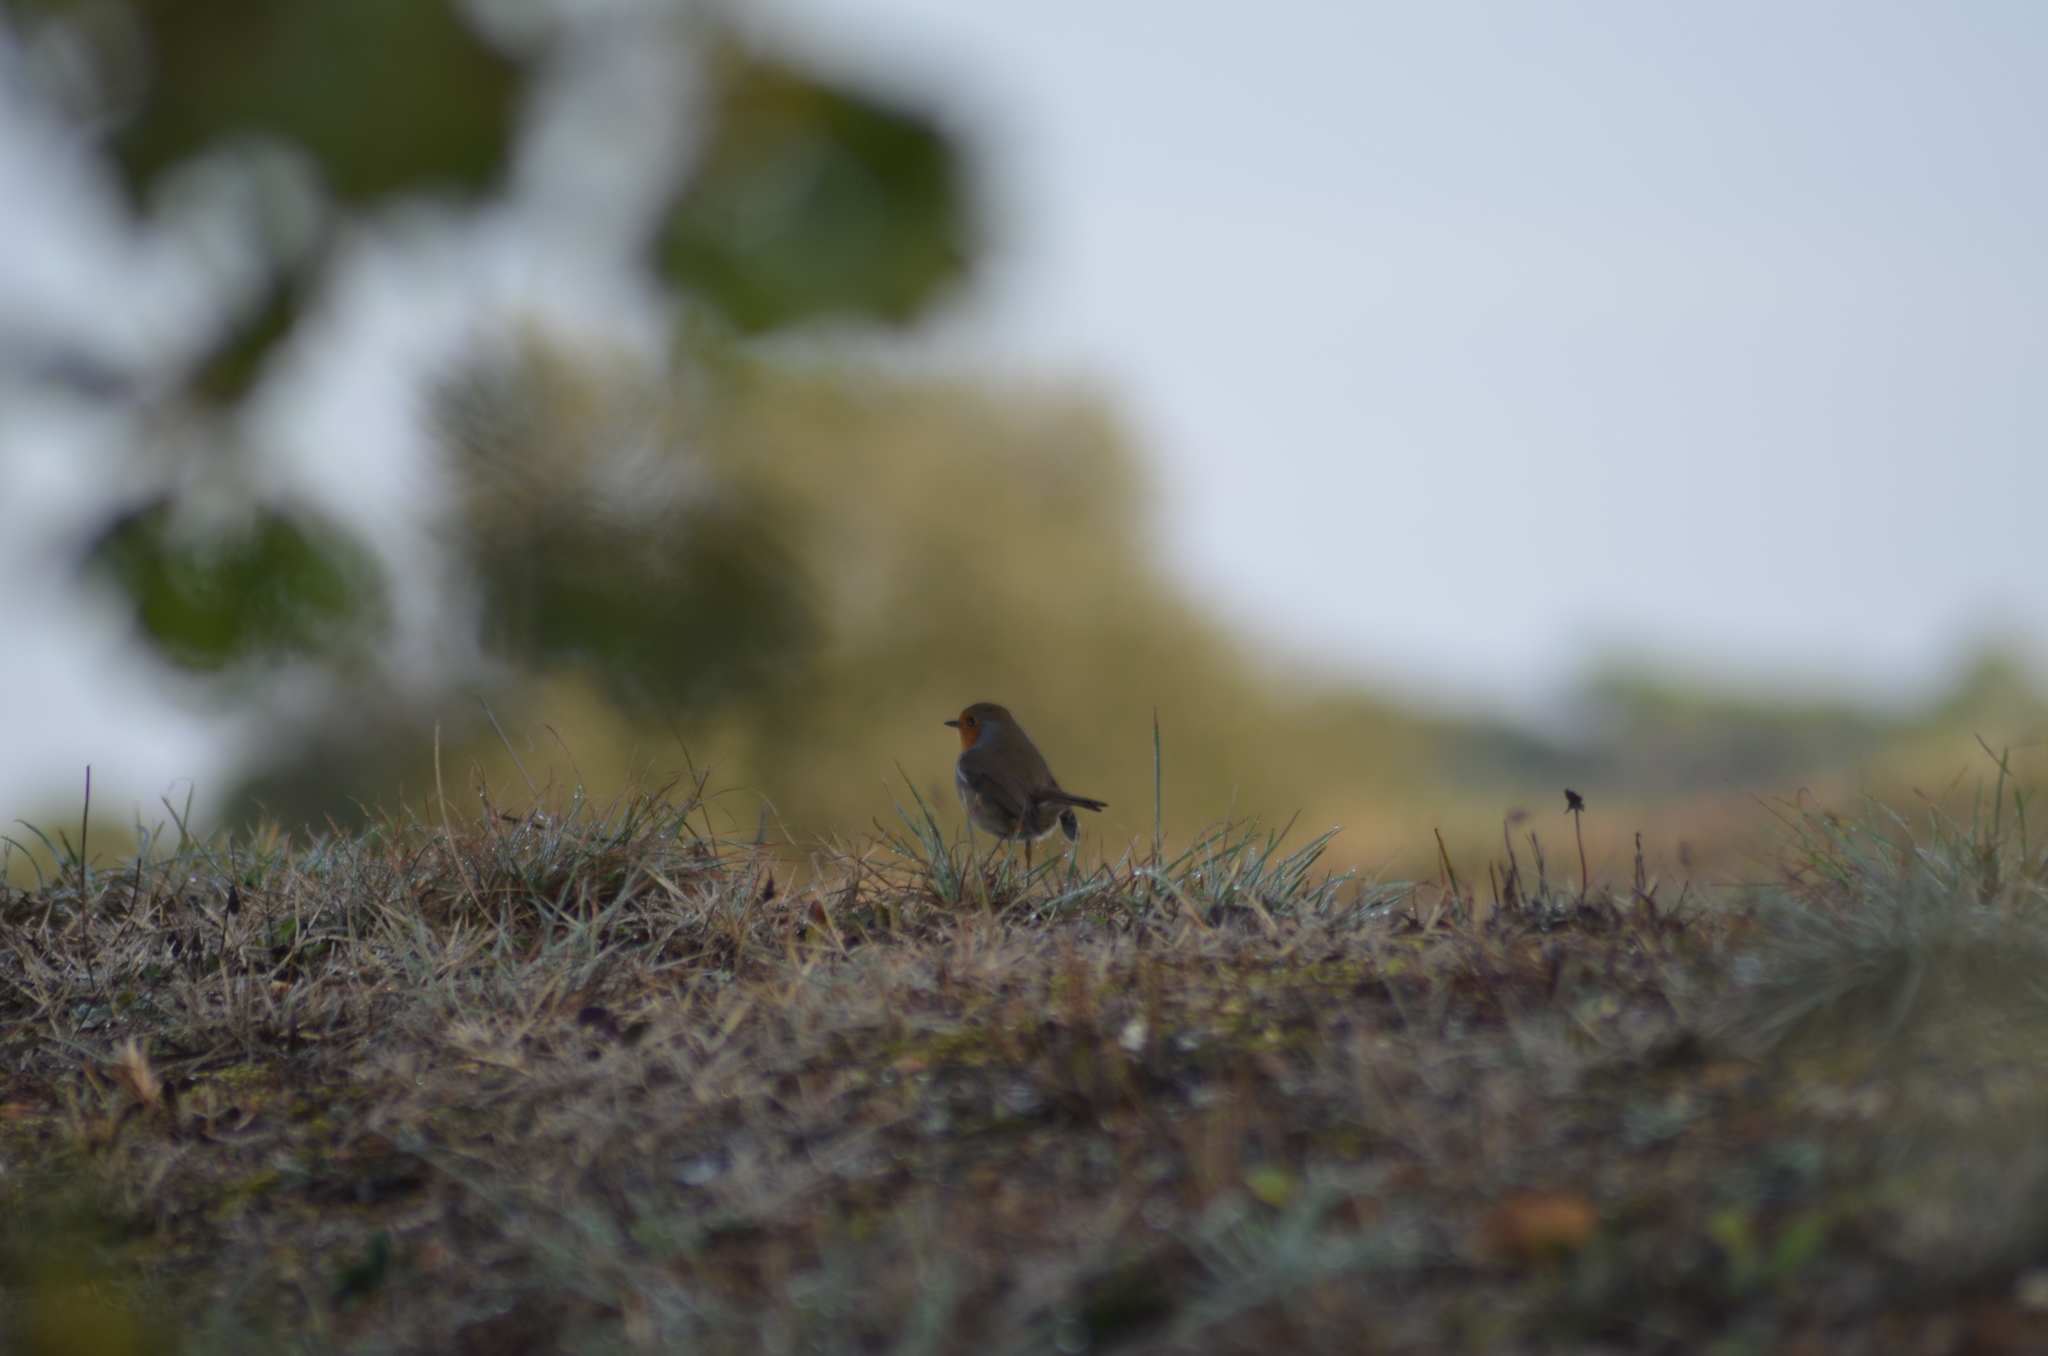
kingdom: Animalia
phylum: Chordata
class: Aves
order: Passeriformes
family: Muscicapidae
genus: Erithacus
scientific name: Erithacus rubecula
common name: European robin
